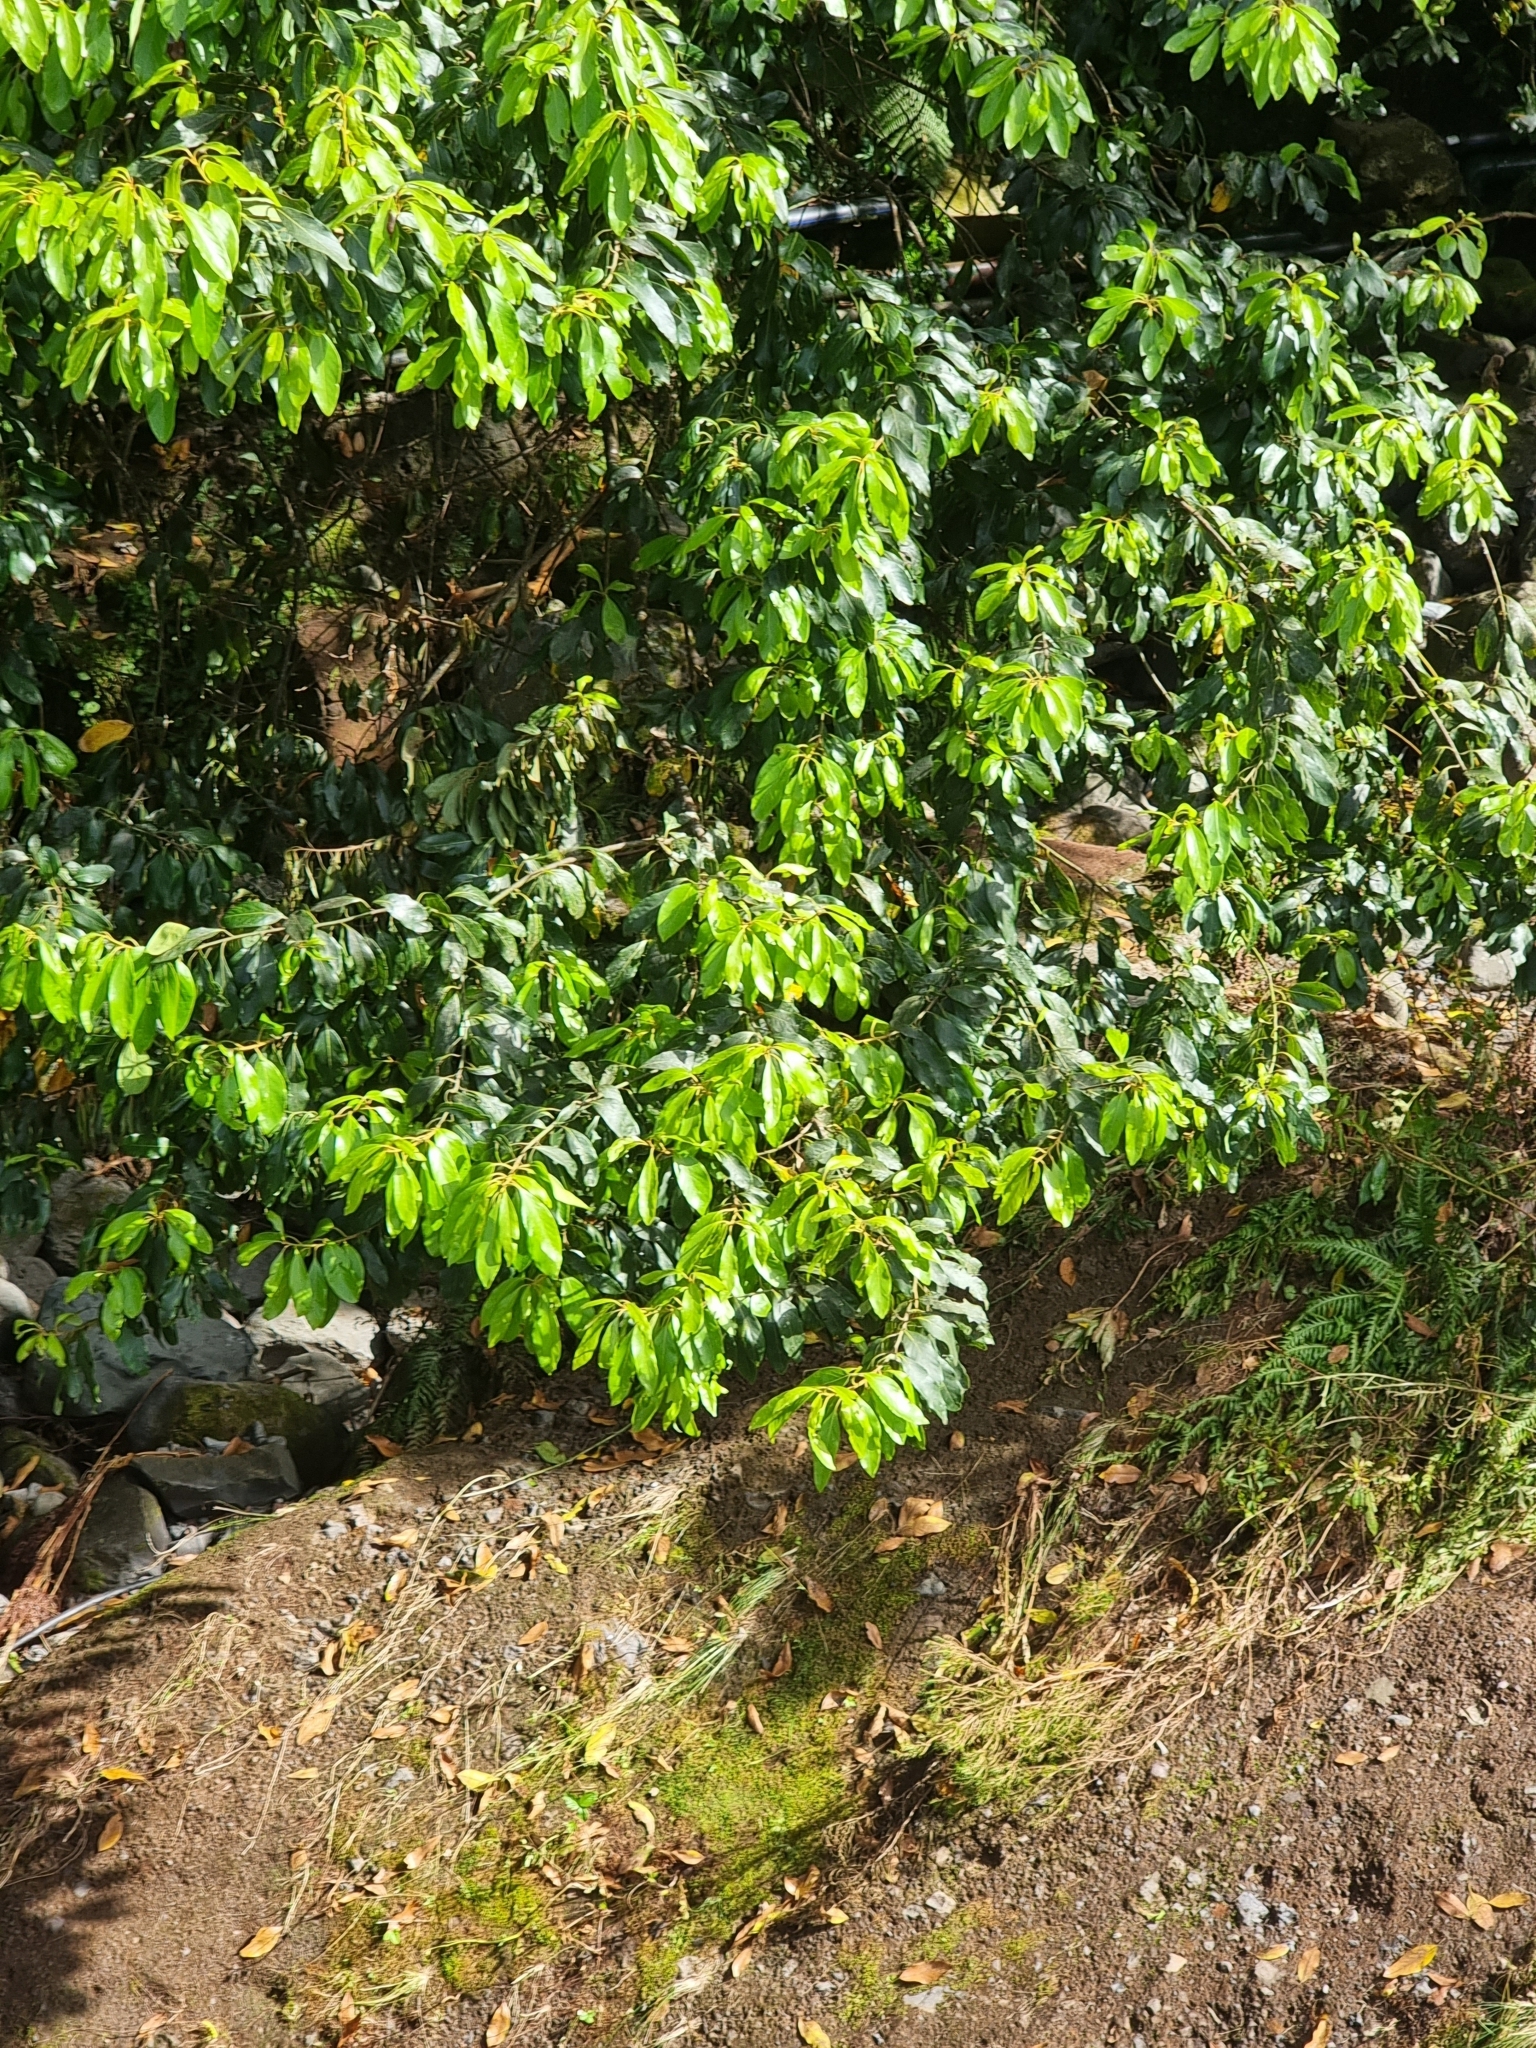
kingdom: Plantae
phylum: Tracheophyta
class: Magnoliopsida
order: Laurales
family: Lauraceae
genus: Laurus
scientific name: Laurus novocanariensis
